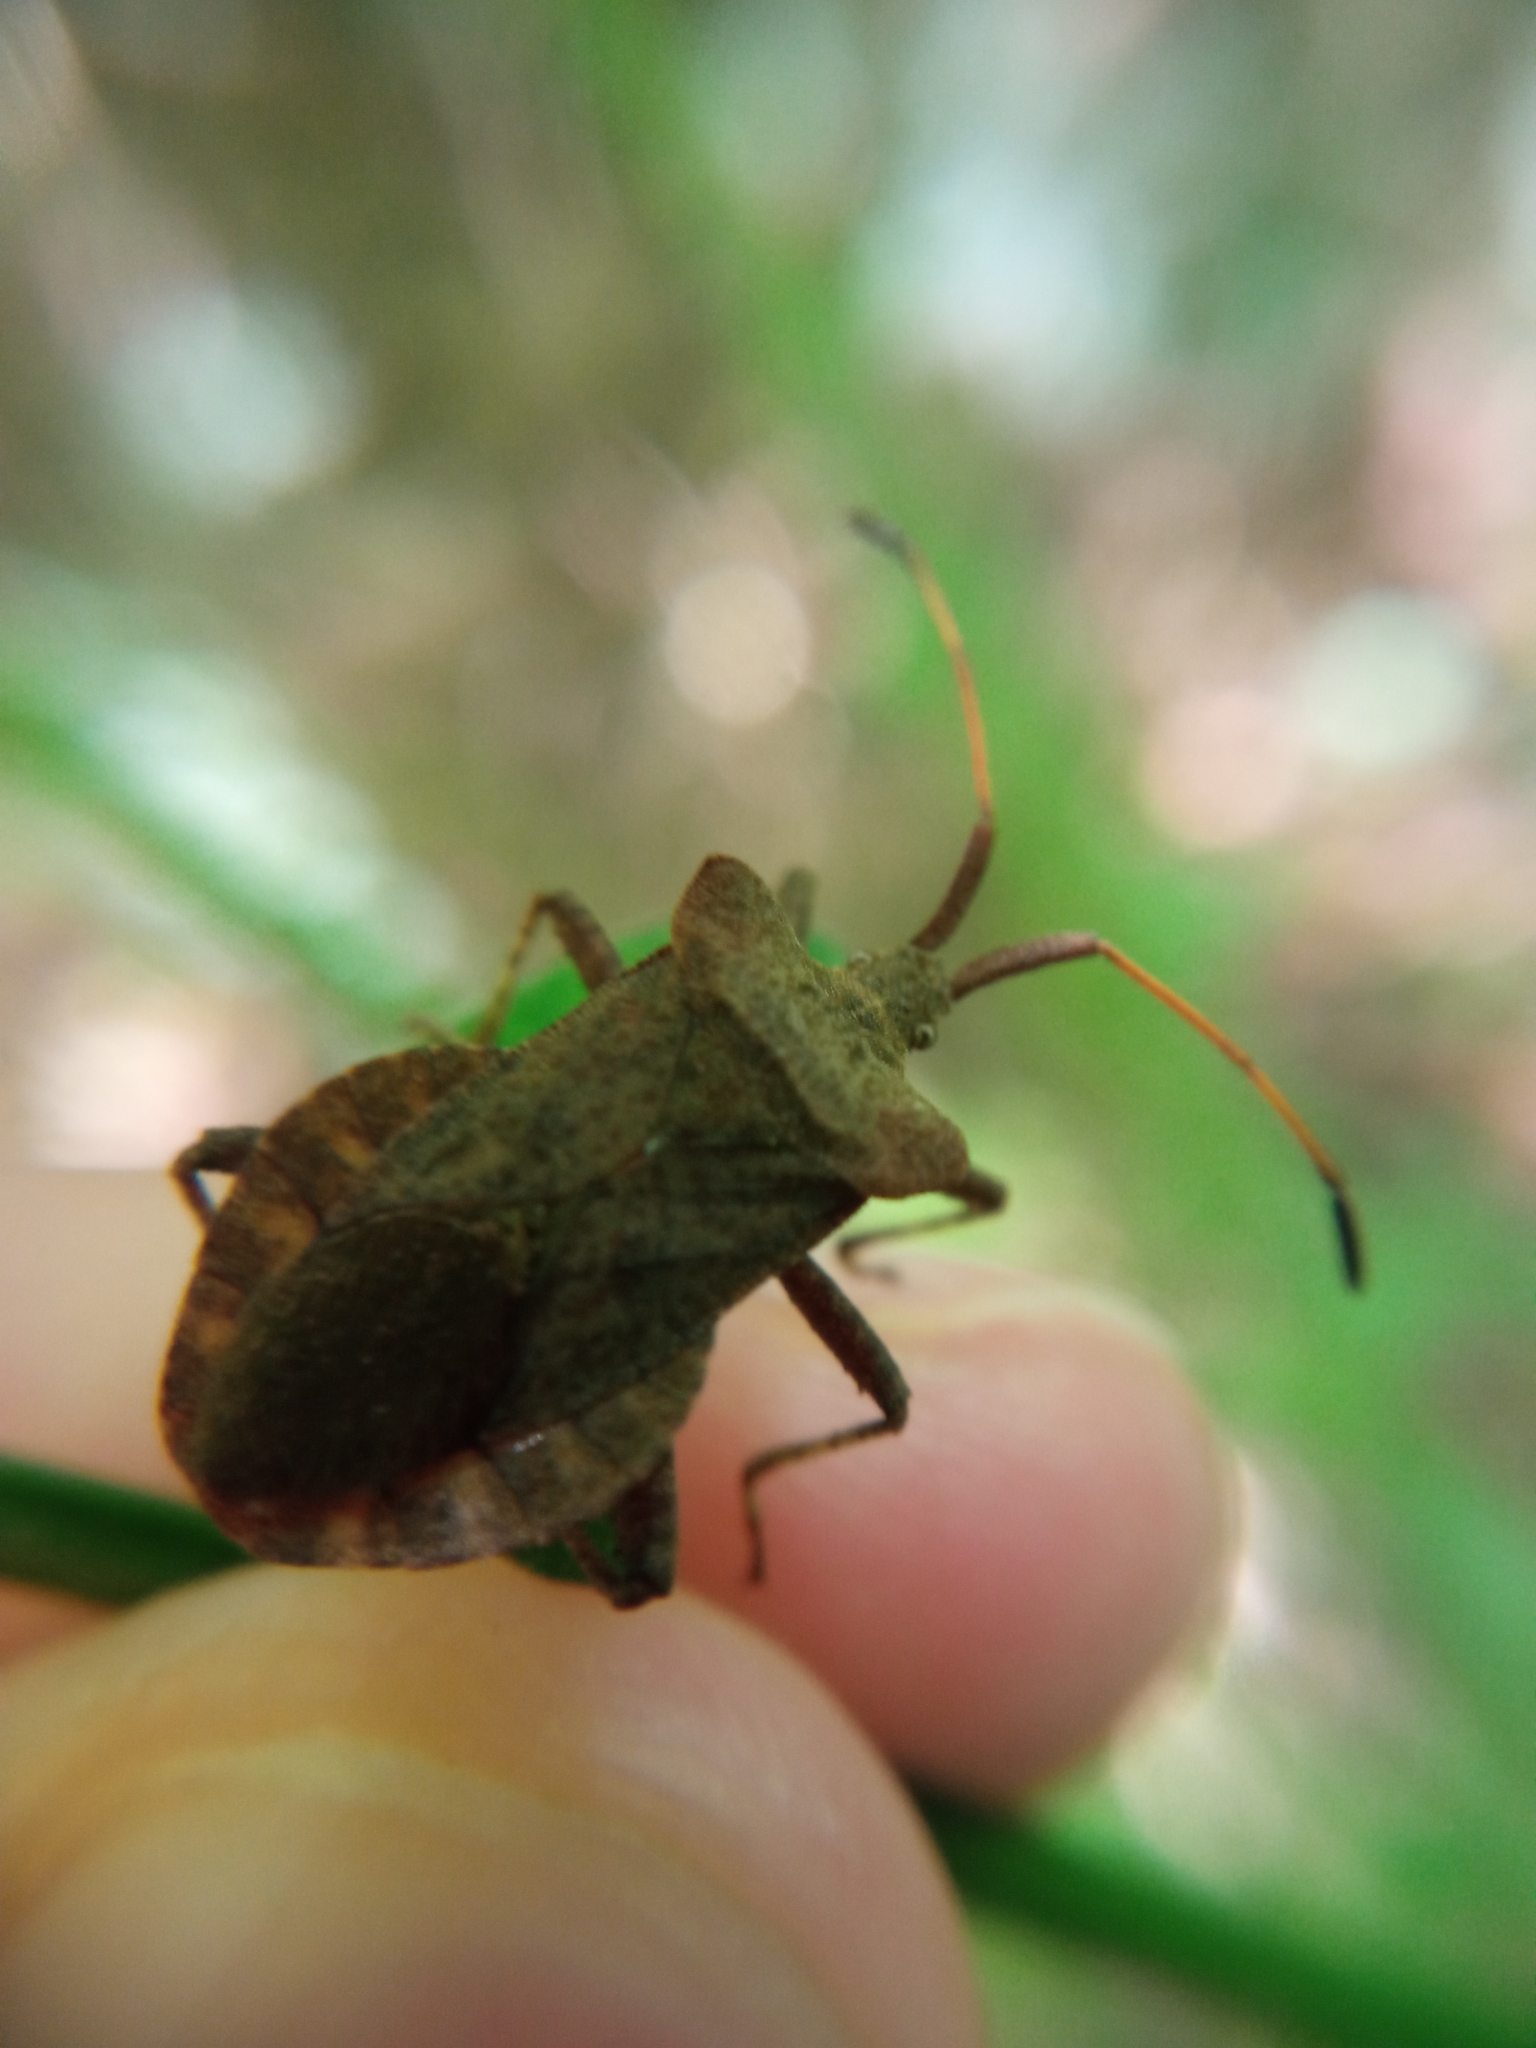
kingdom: Animalia
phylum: Arthropoda
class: Insecta
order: Hemiptera
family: Coreidae
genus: Coreus
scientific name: Coreus marginatus
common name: Dock bug
